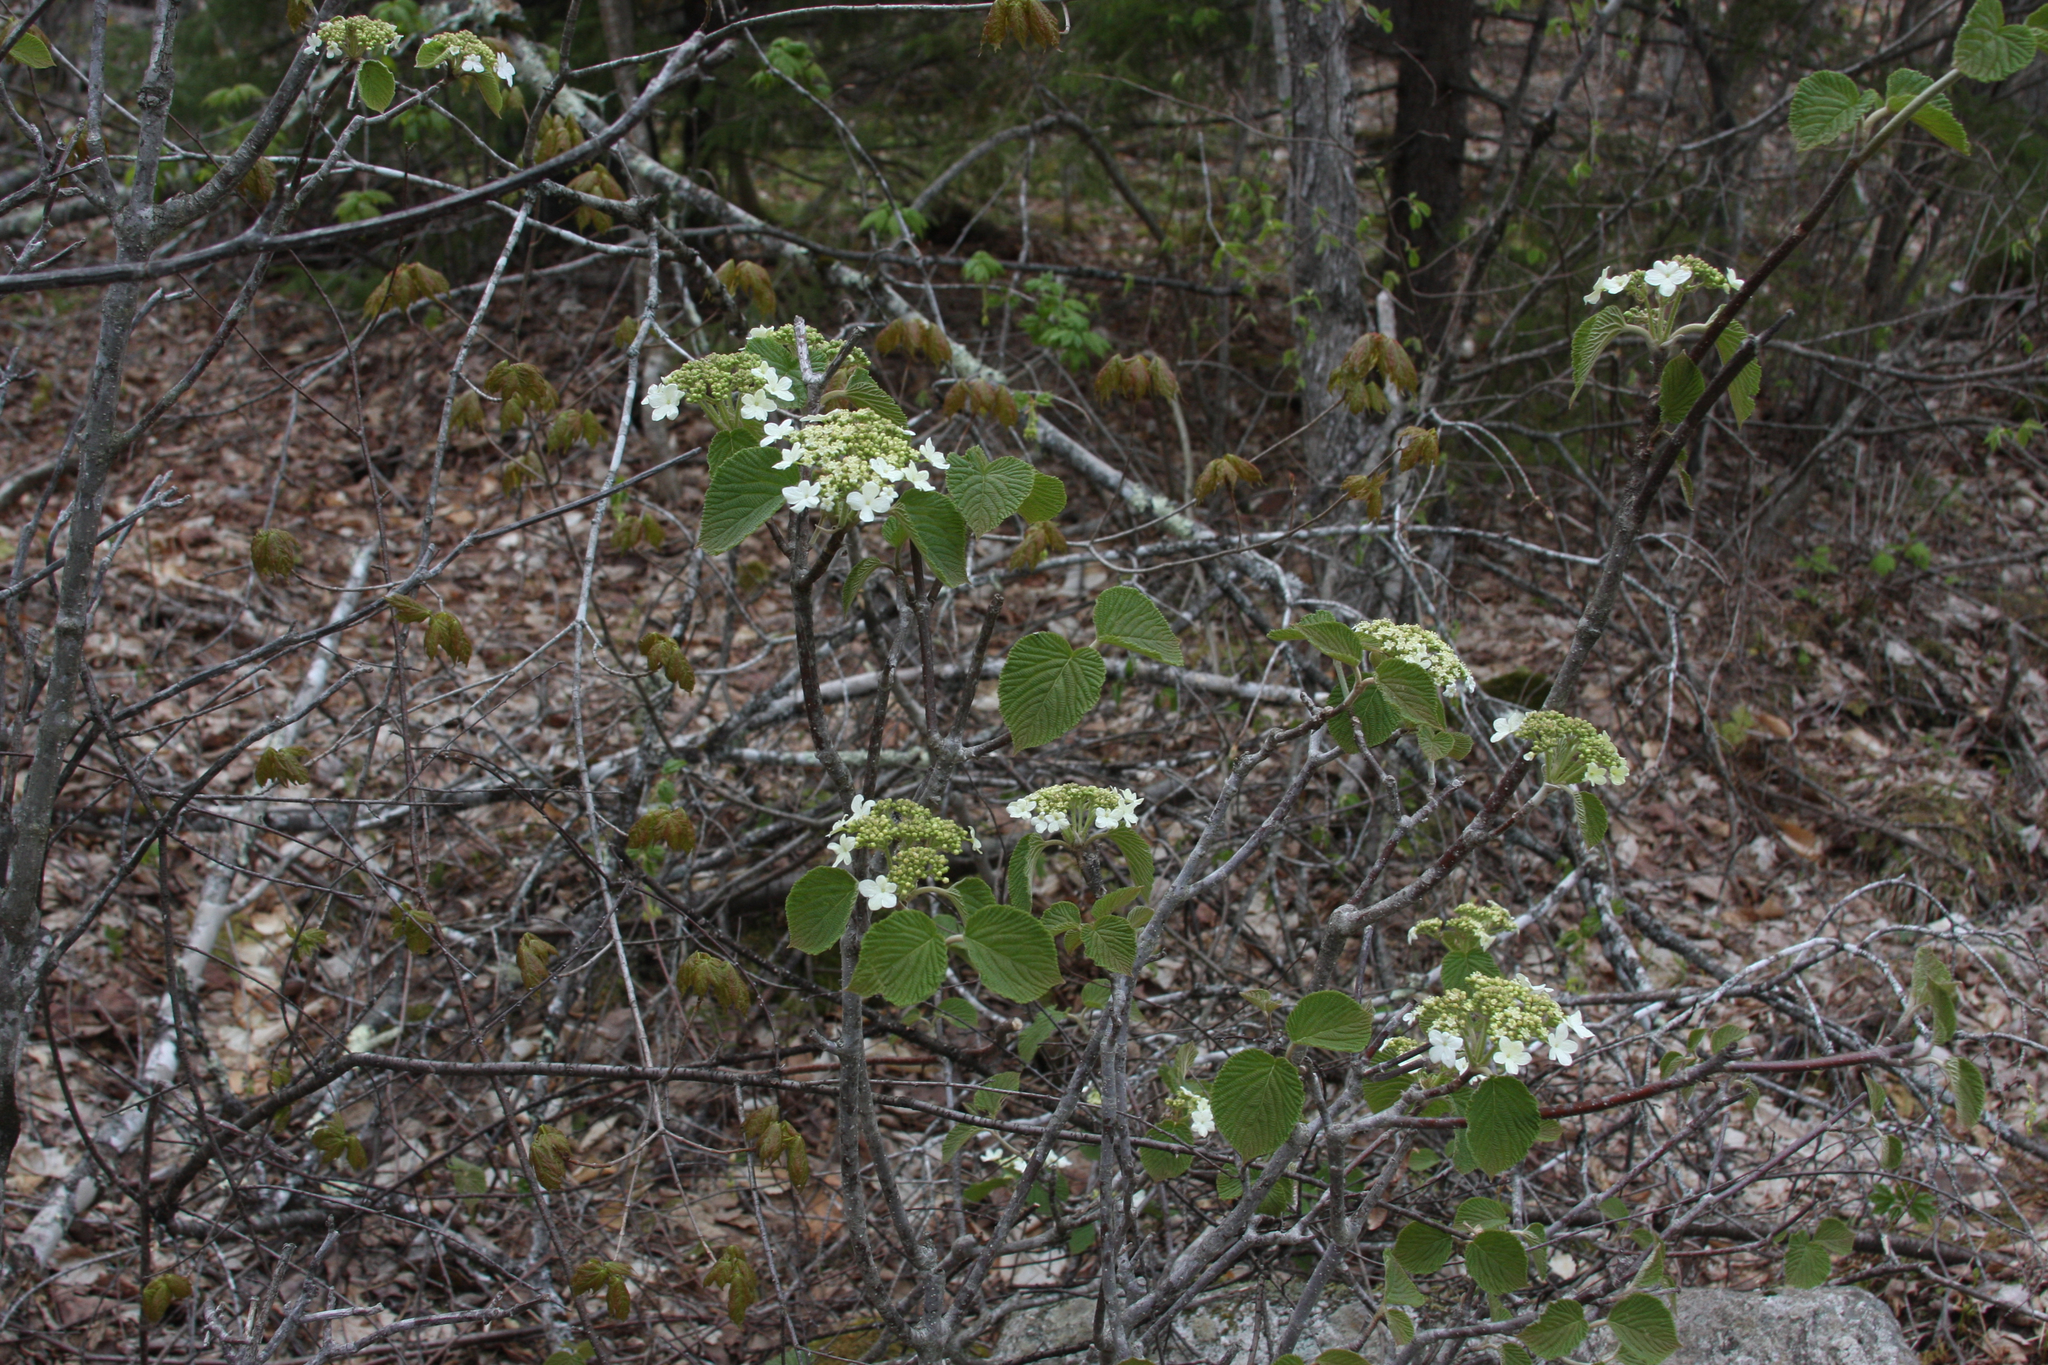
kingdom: Plantae
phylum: Tracheophyta
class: Magnoliopsida
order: Dipsacales
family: Viburnaceae
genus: Viburnum
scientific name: Viburnum lantanoides
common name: Hobblebush
